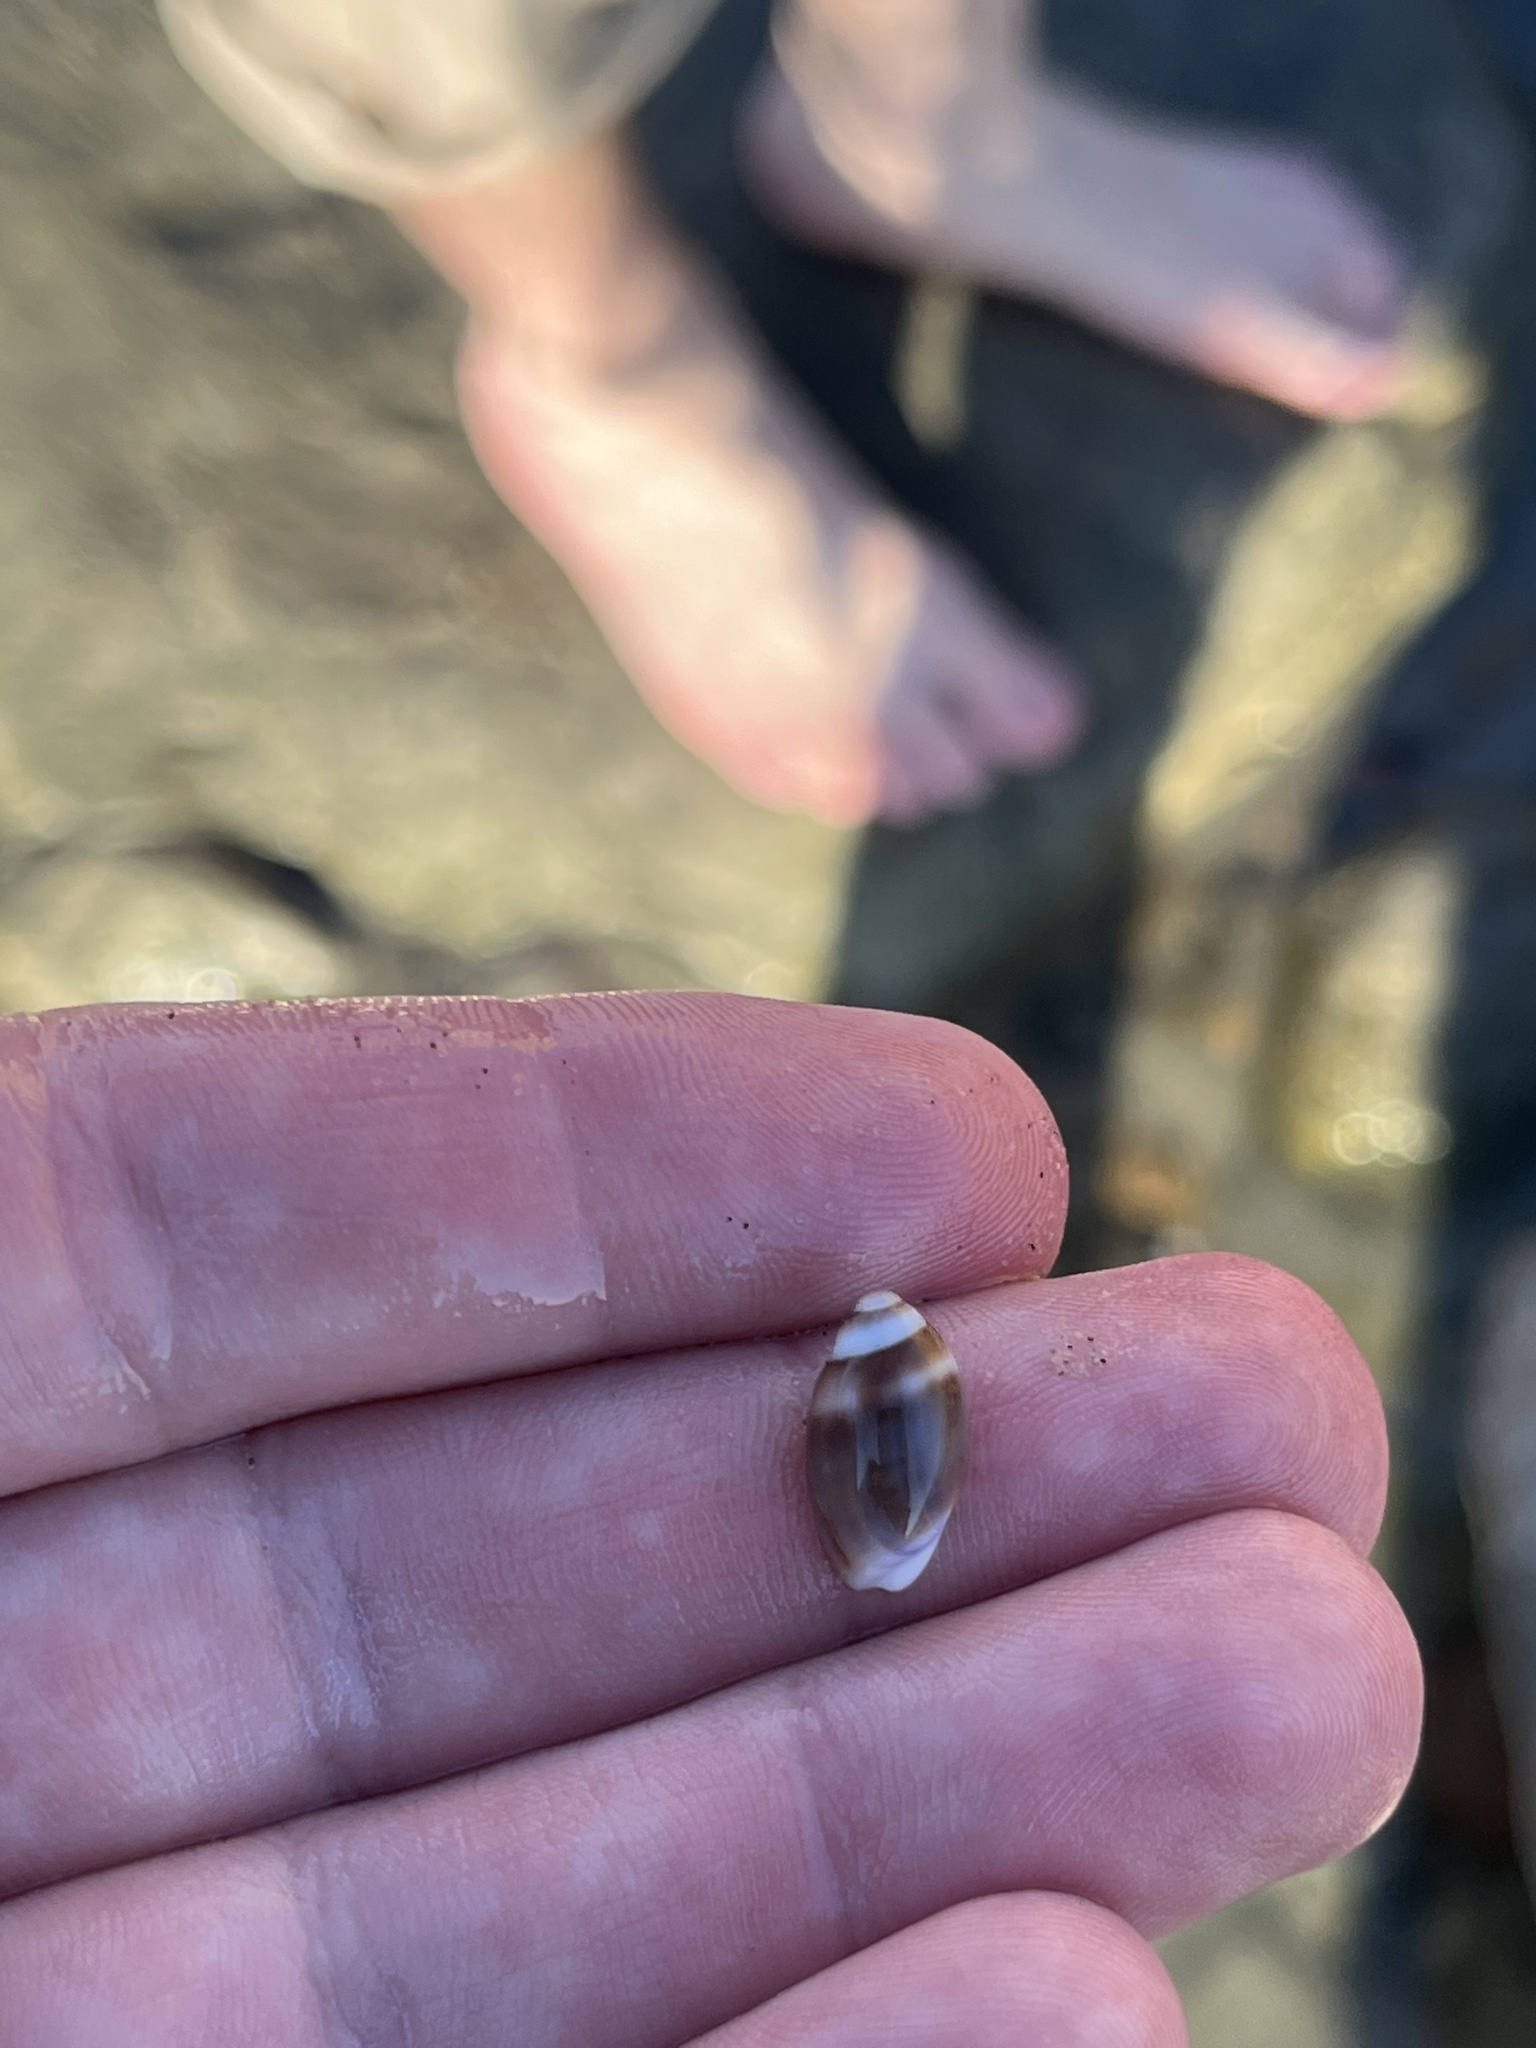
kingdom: Animalia
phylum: Mollusca
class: Gastropoda
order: Neogastropoda
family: Olividae
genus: Callianax
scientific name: Callianax biplicata
